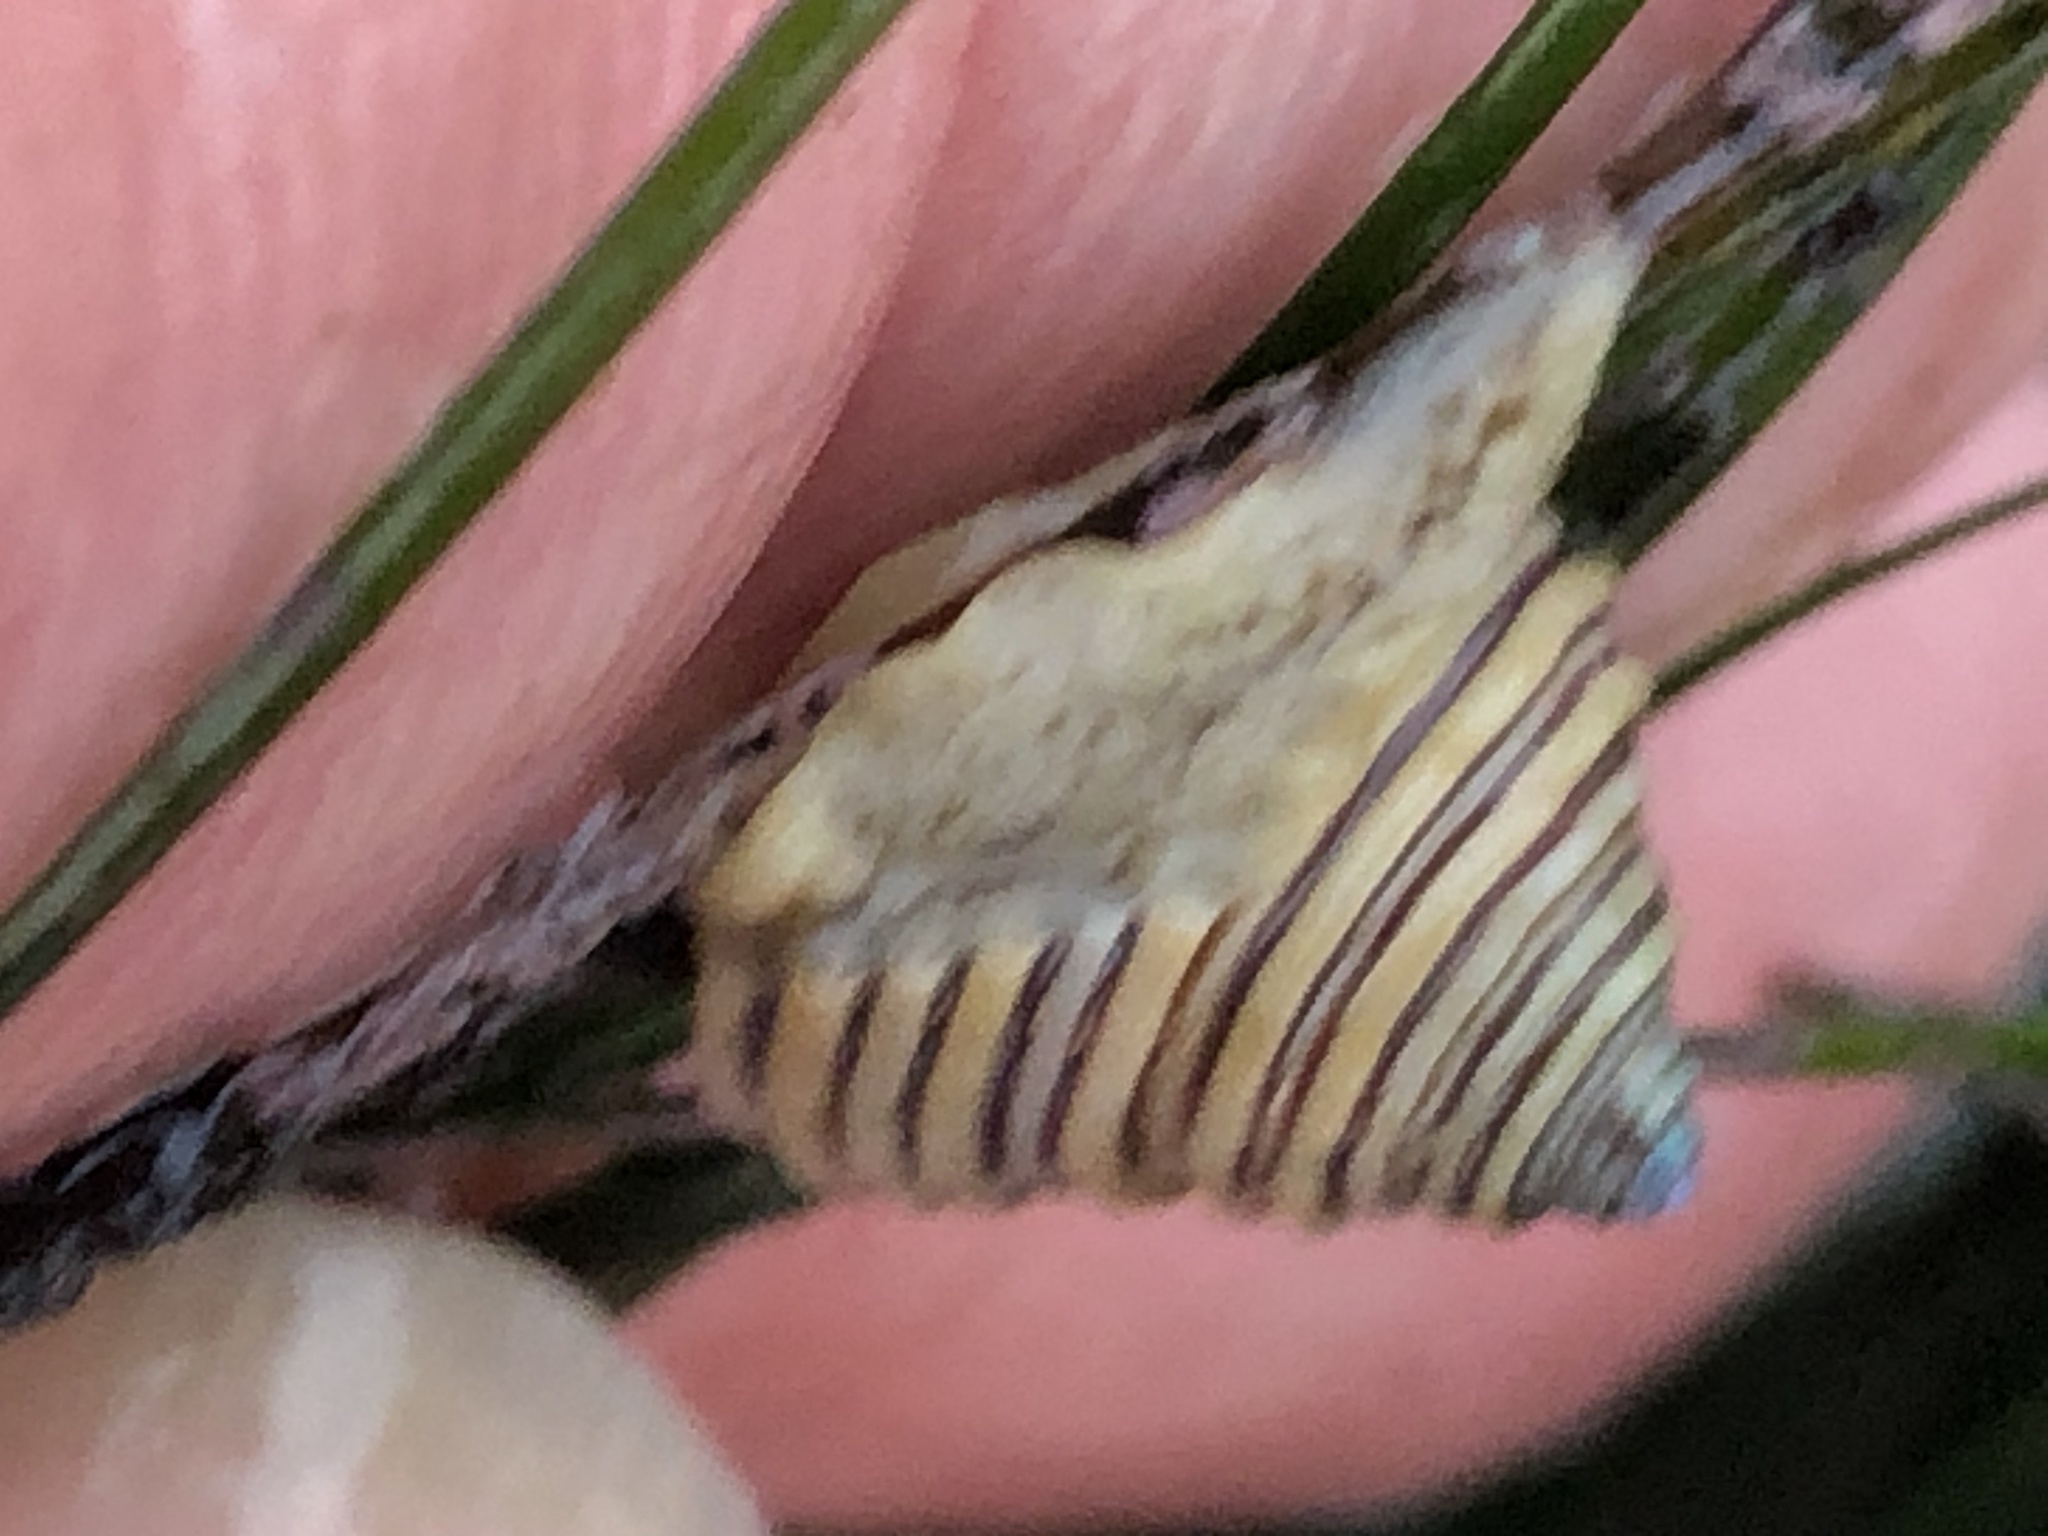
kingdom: Animalia
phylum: Mollusca
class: Gastropoda
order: Trochida
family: Calliostomatidae
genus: Calliostoma
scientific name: Calliostoma canaliculatum
